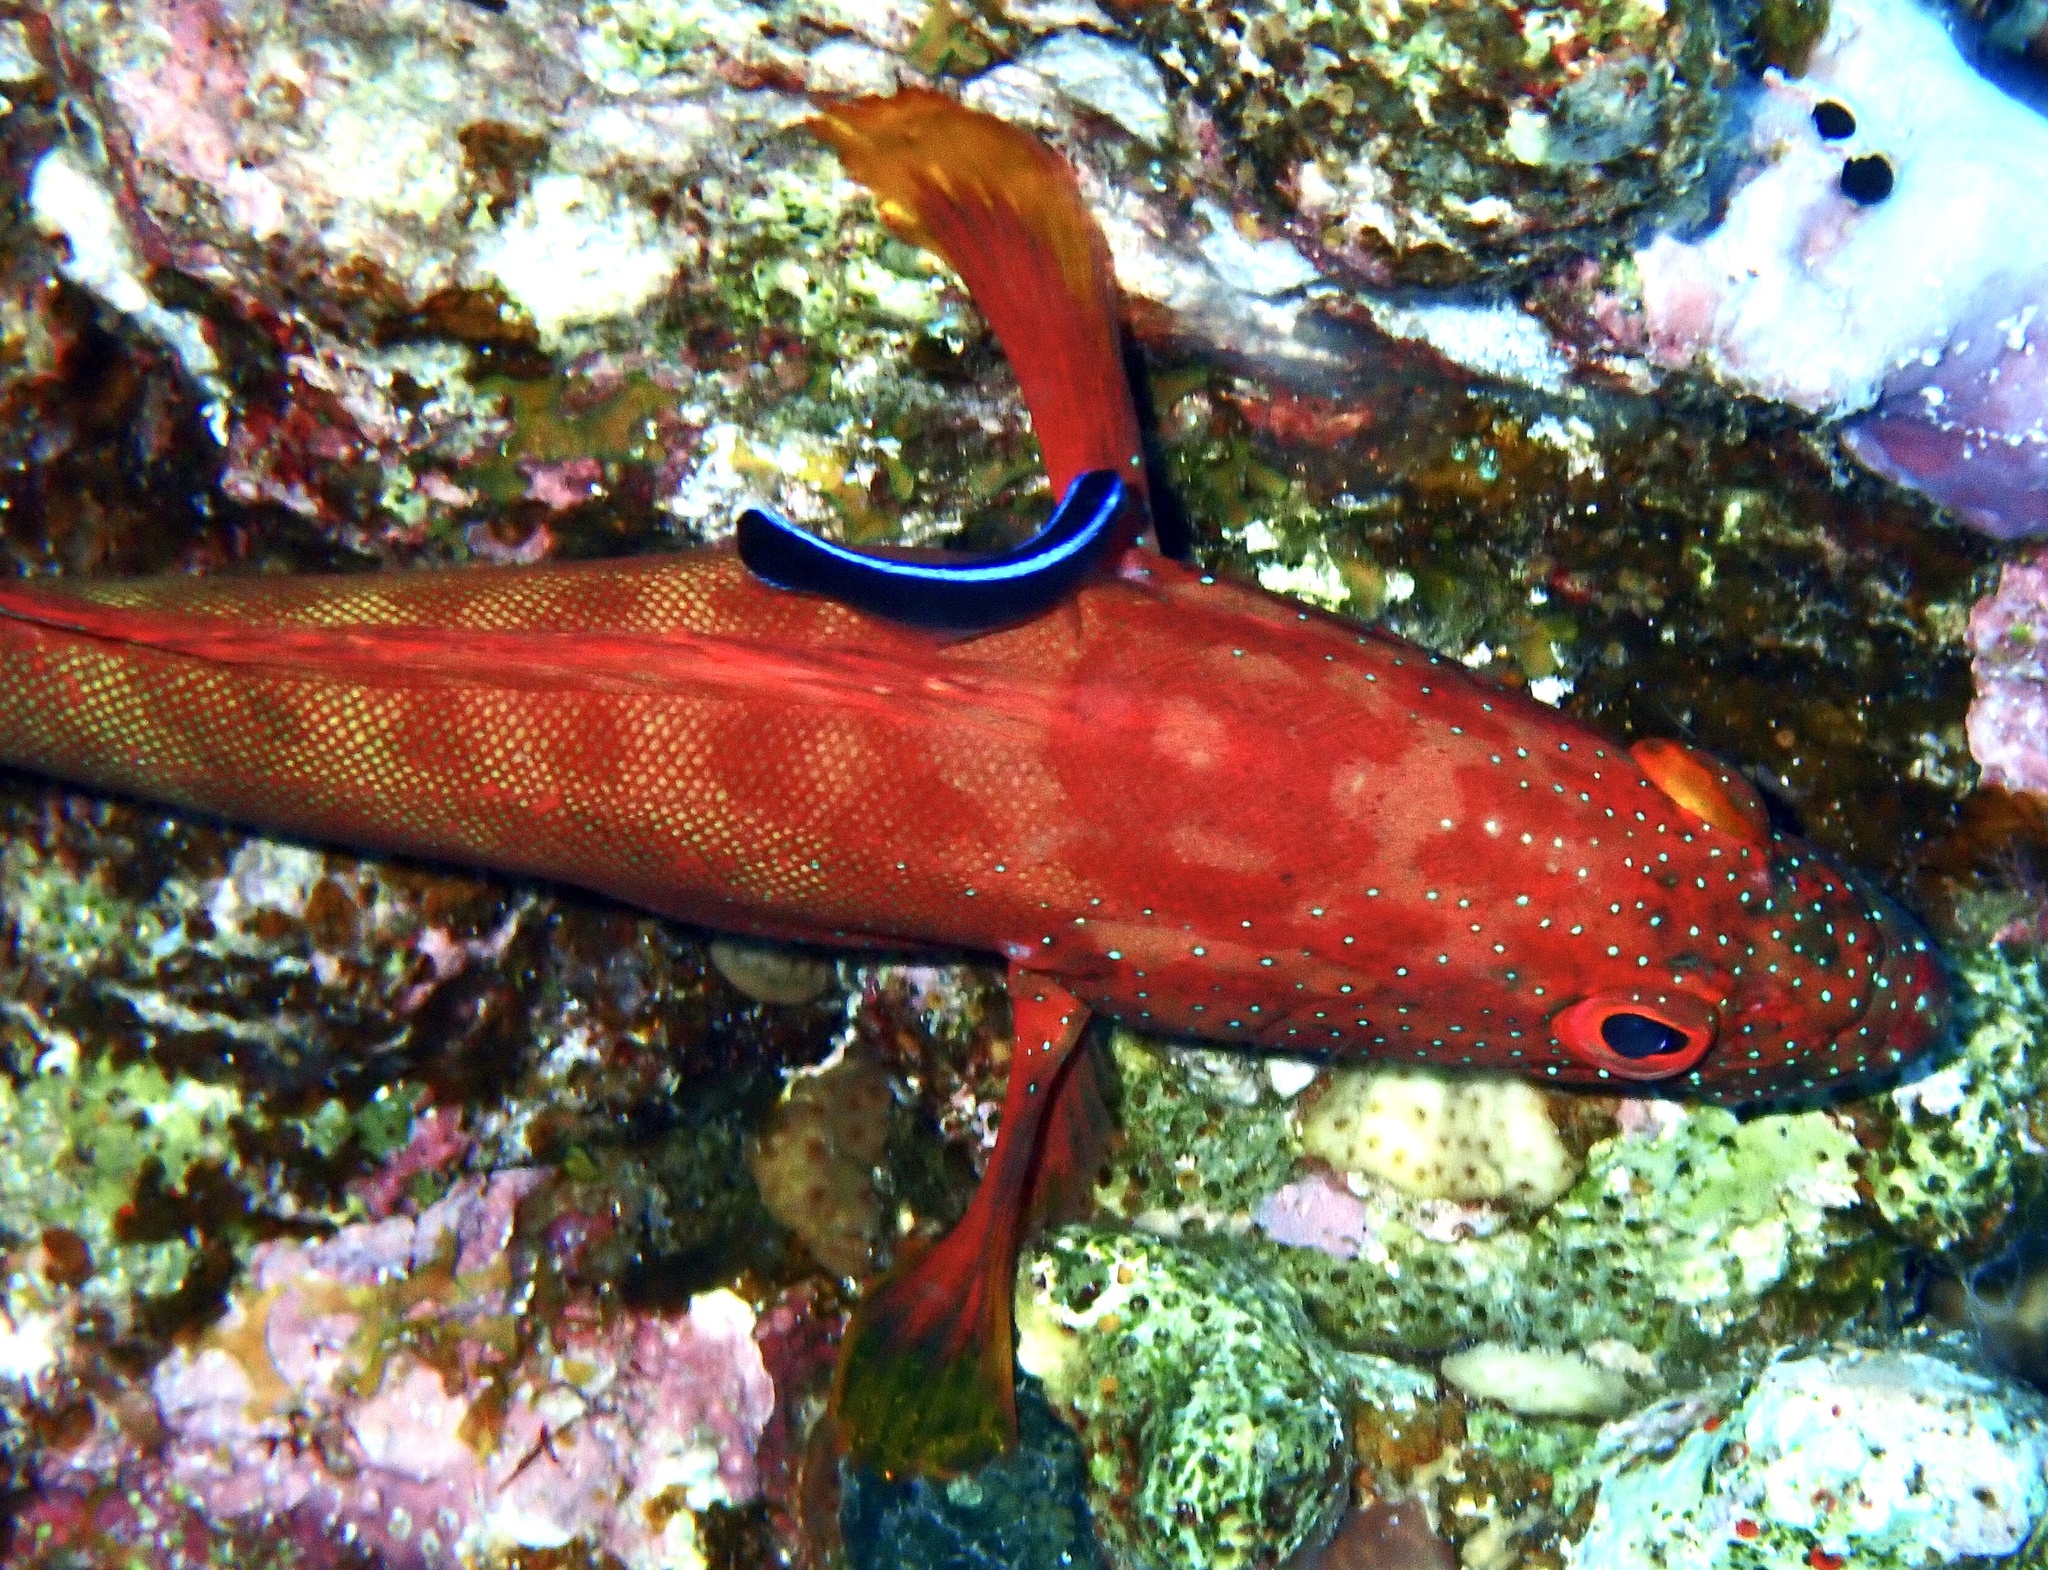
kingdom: Animalia
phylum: Chordata
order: Perciformes
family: Serranidae
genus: Cephalopholis
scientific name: Cephalopholis hemistiktos
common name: Halfspotted hind
